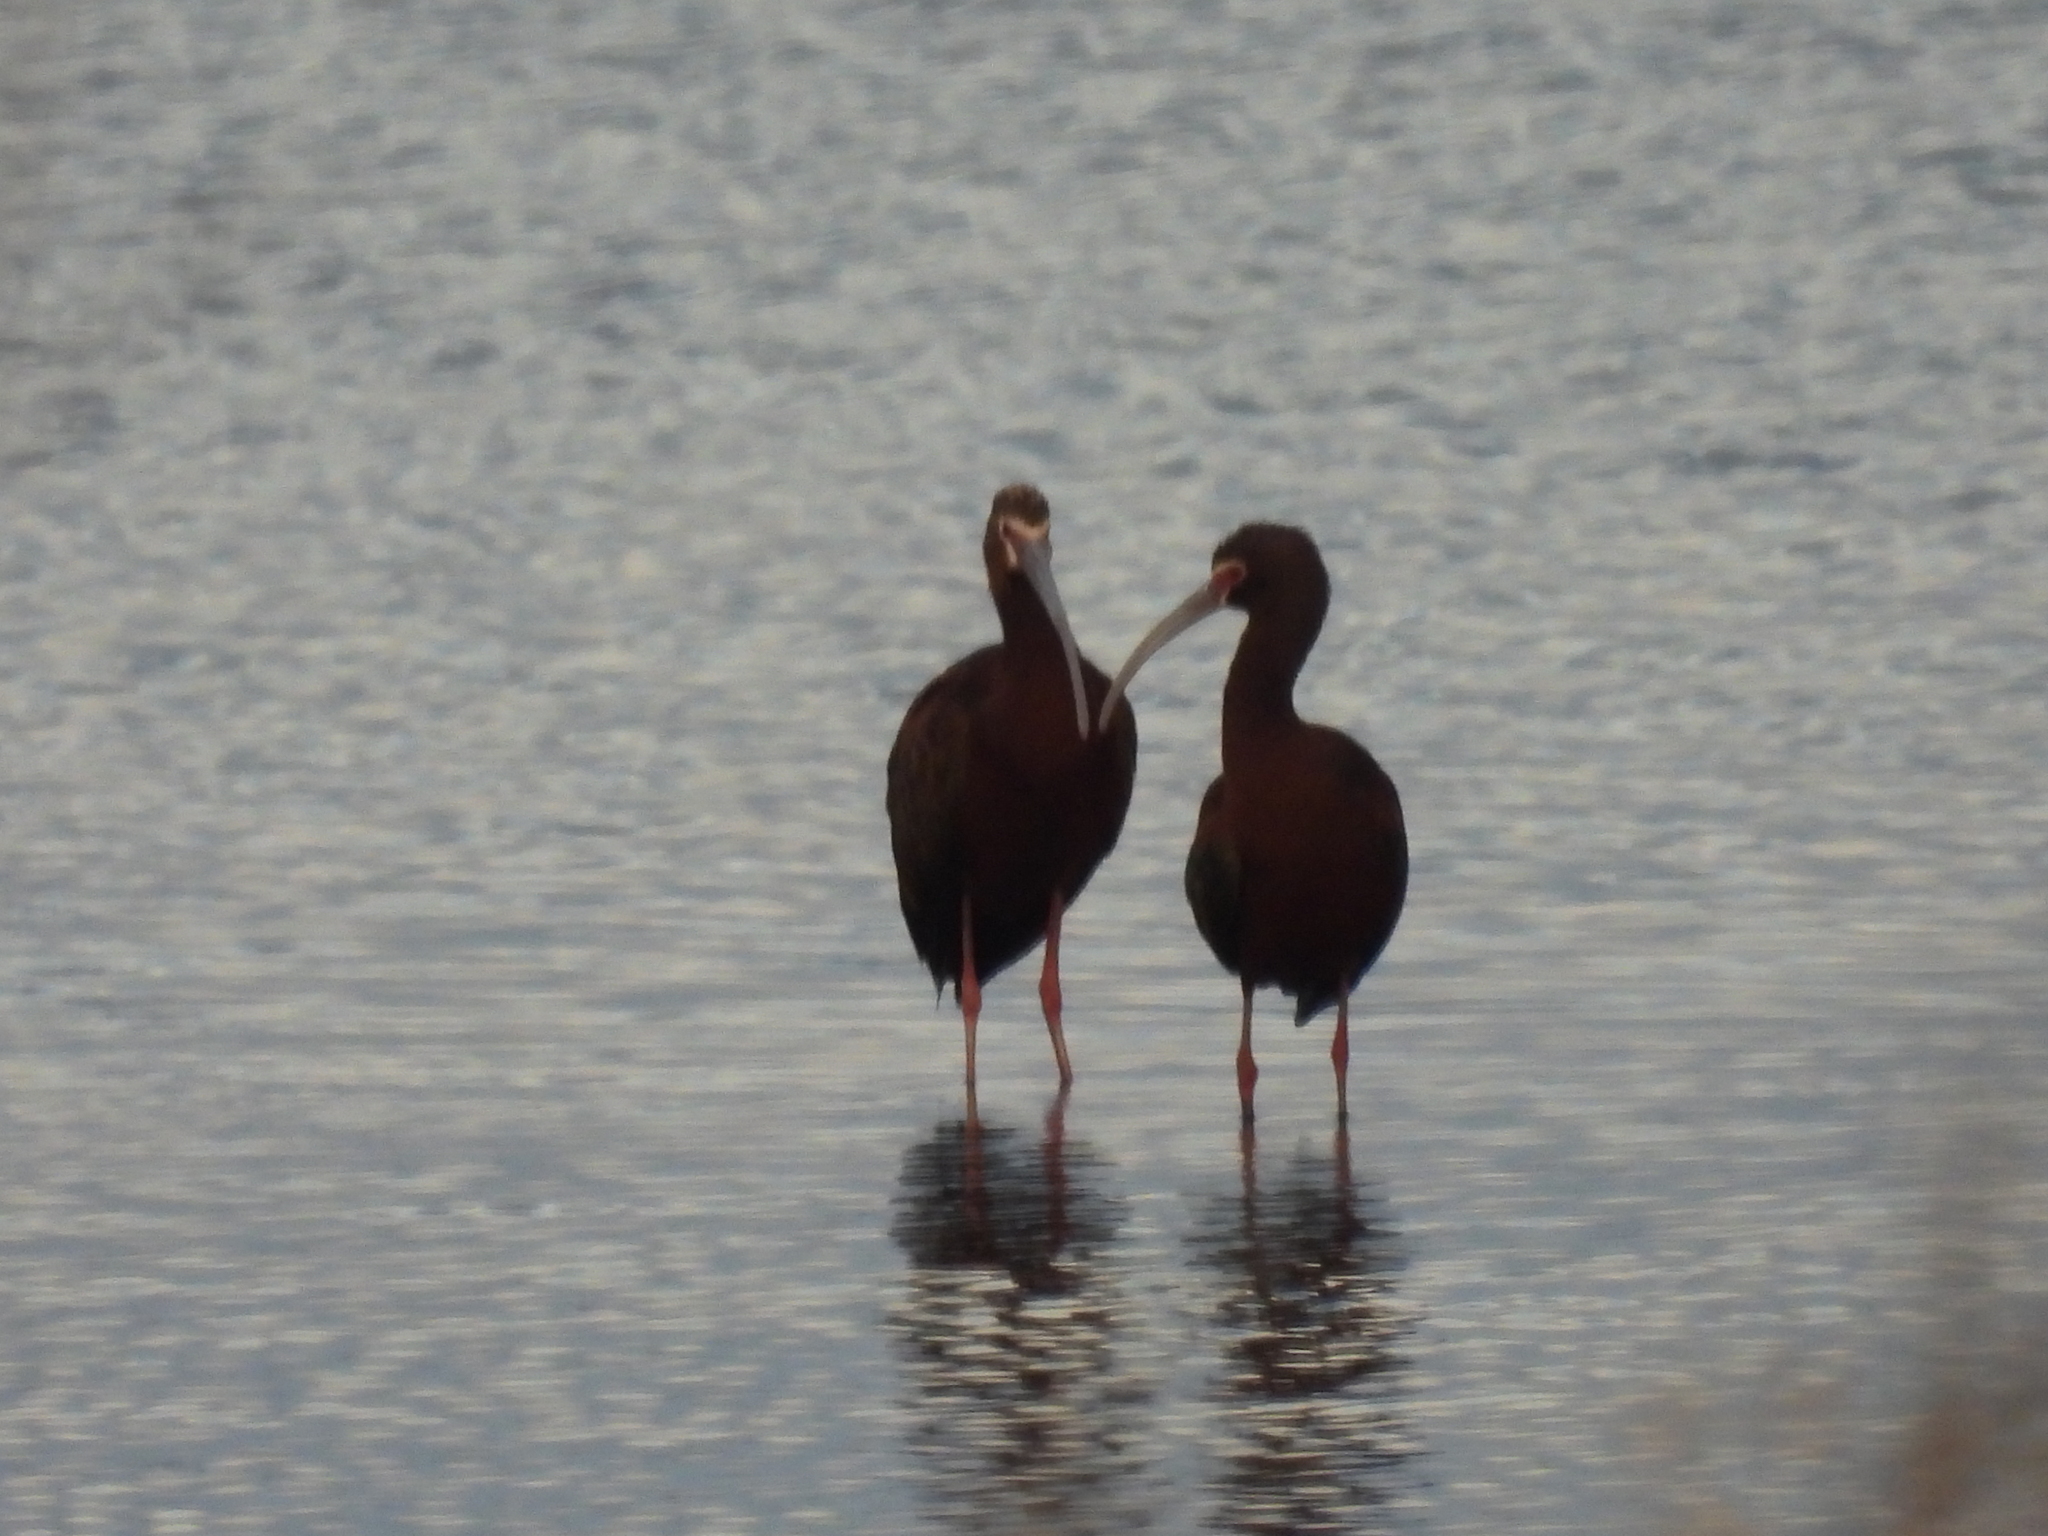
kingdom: Animalia
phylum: Chordata
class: Aves
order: Pelecaniformes
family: Threskiornithidae
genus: Plegadis
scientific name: Plegadis chihi
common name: White-faced ibis
